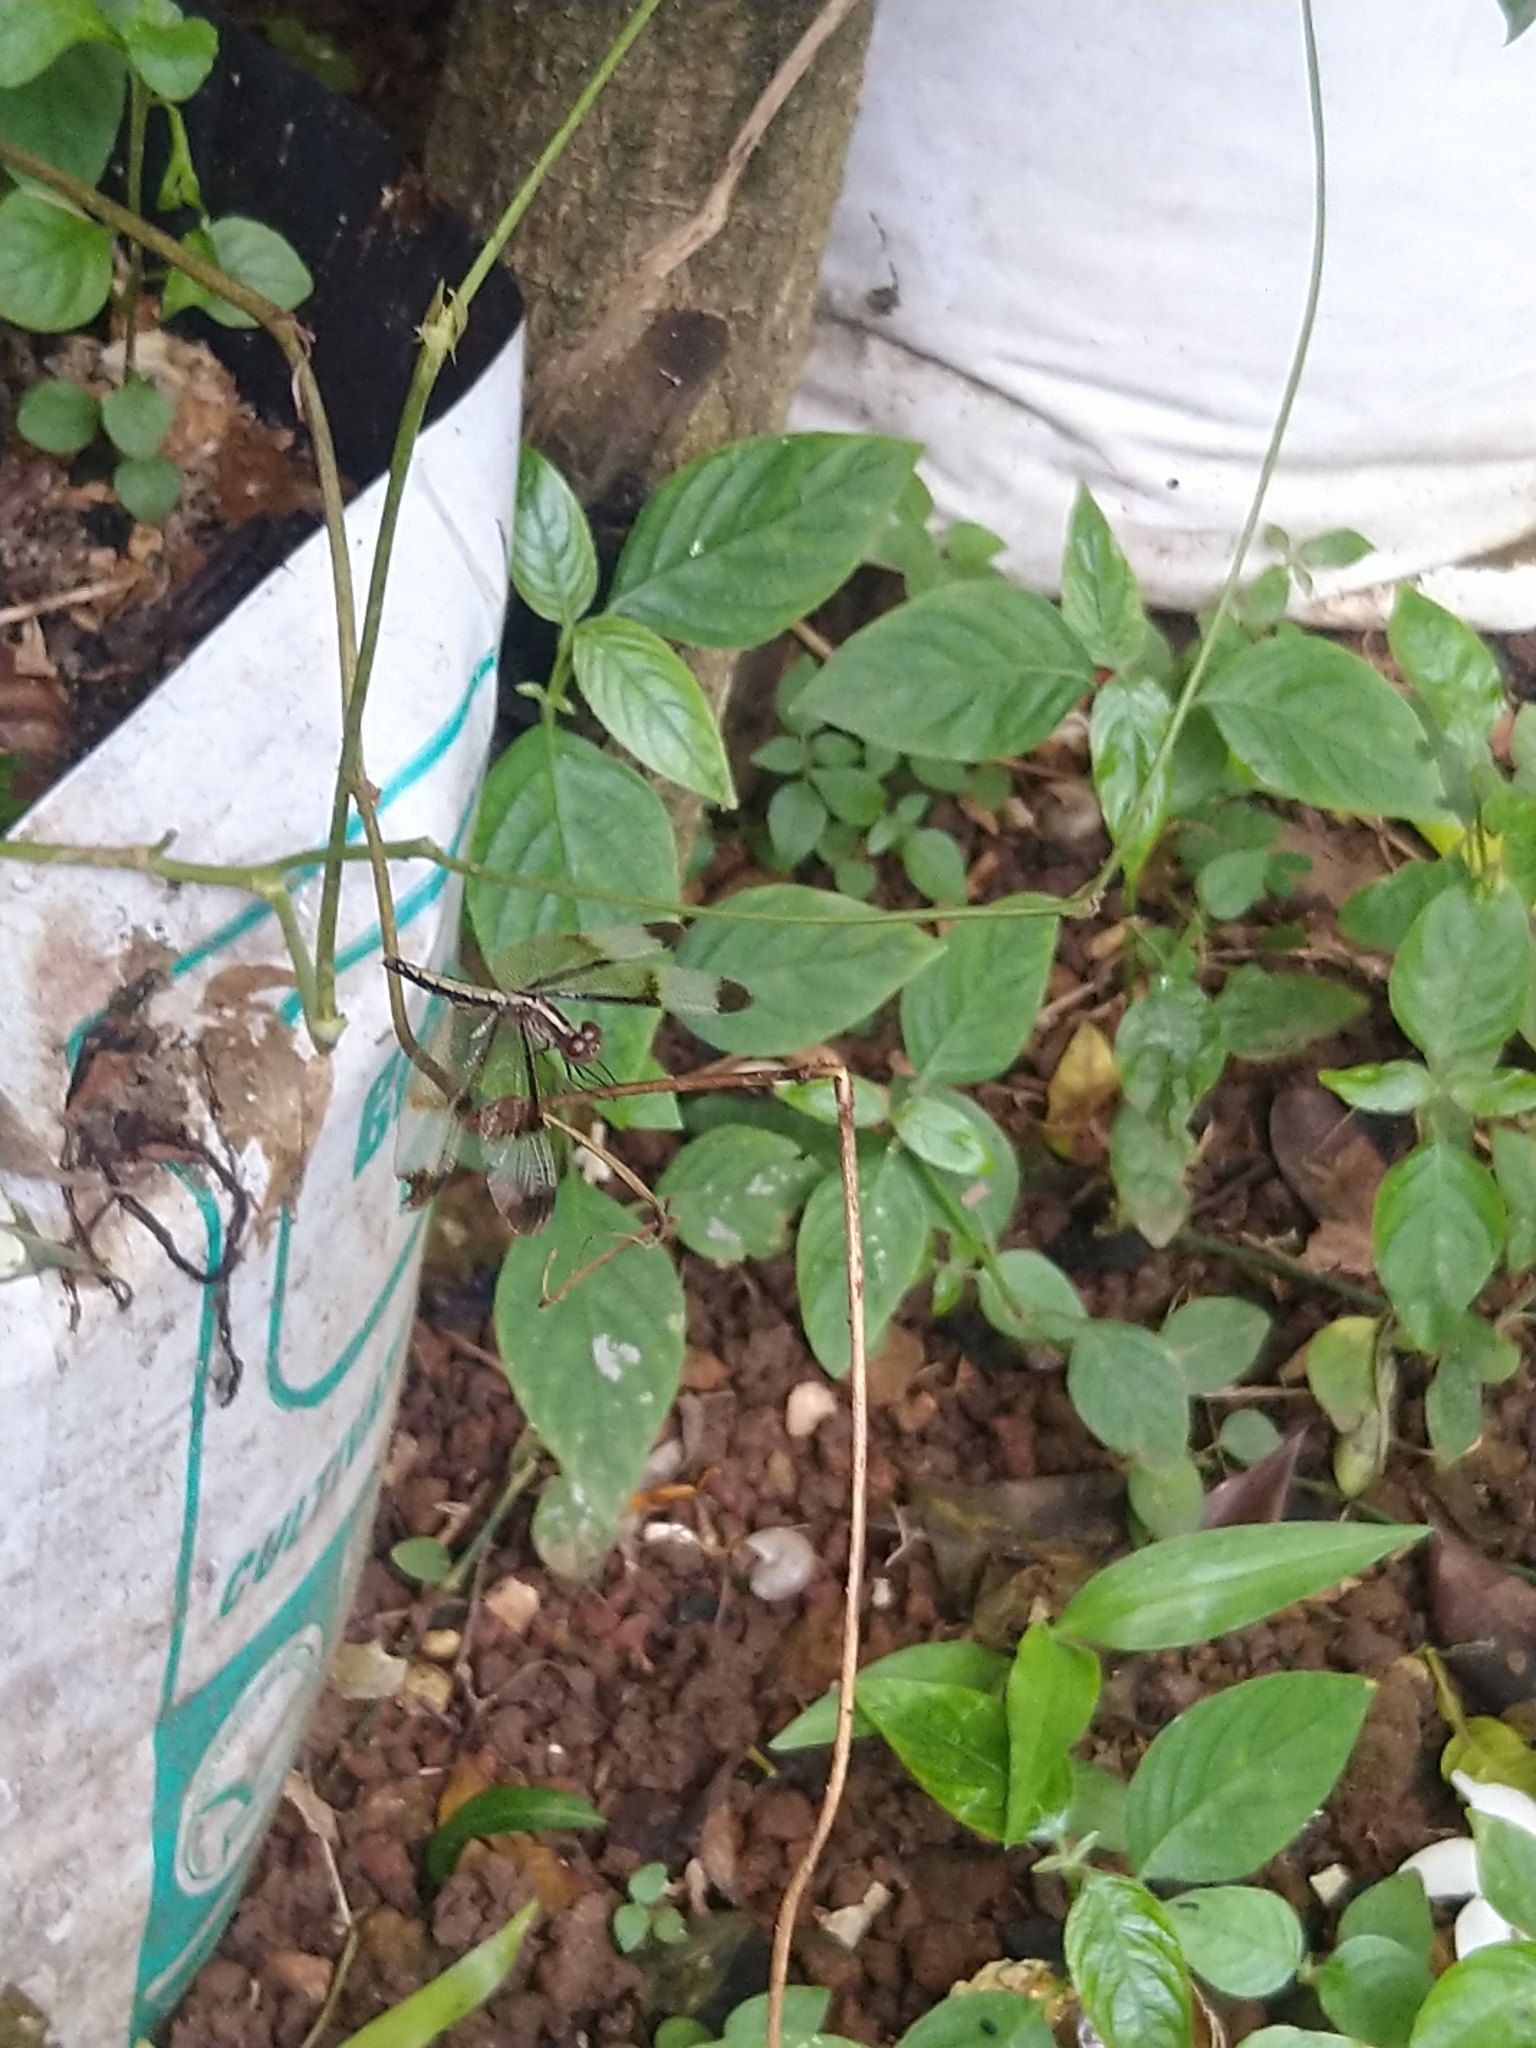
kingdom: Animalia
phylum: Arthropoda
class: Insecta
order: Odonata
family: Libellulidae
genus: Neurothemis
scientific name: Neurothemis tullia
